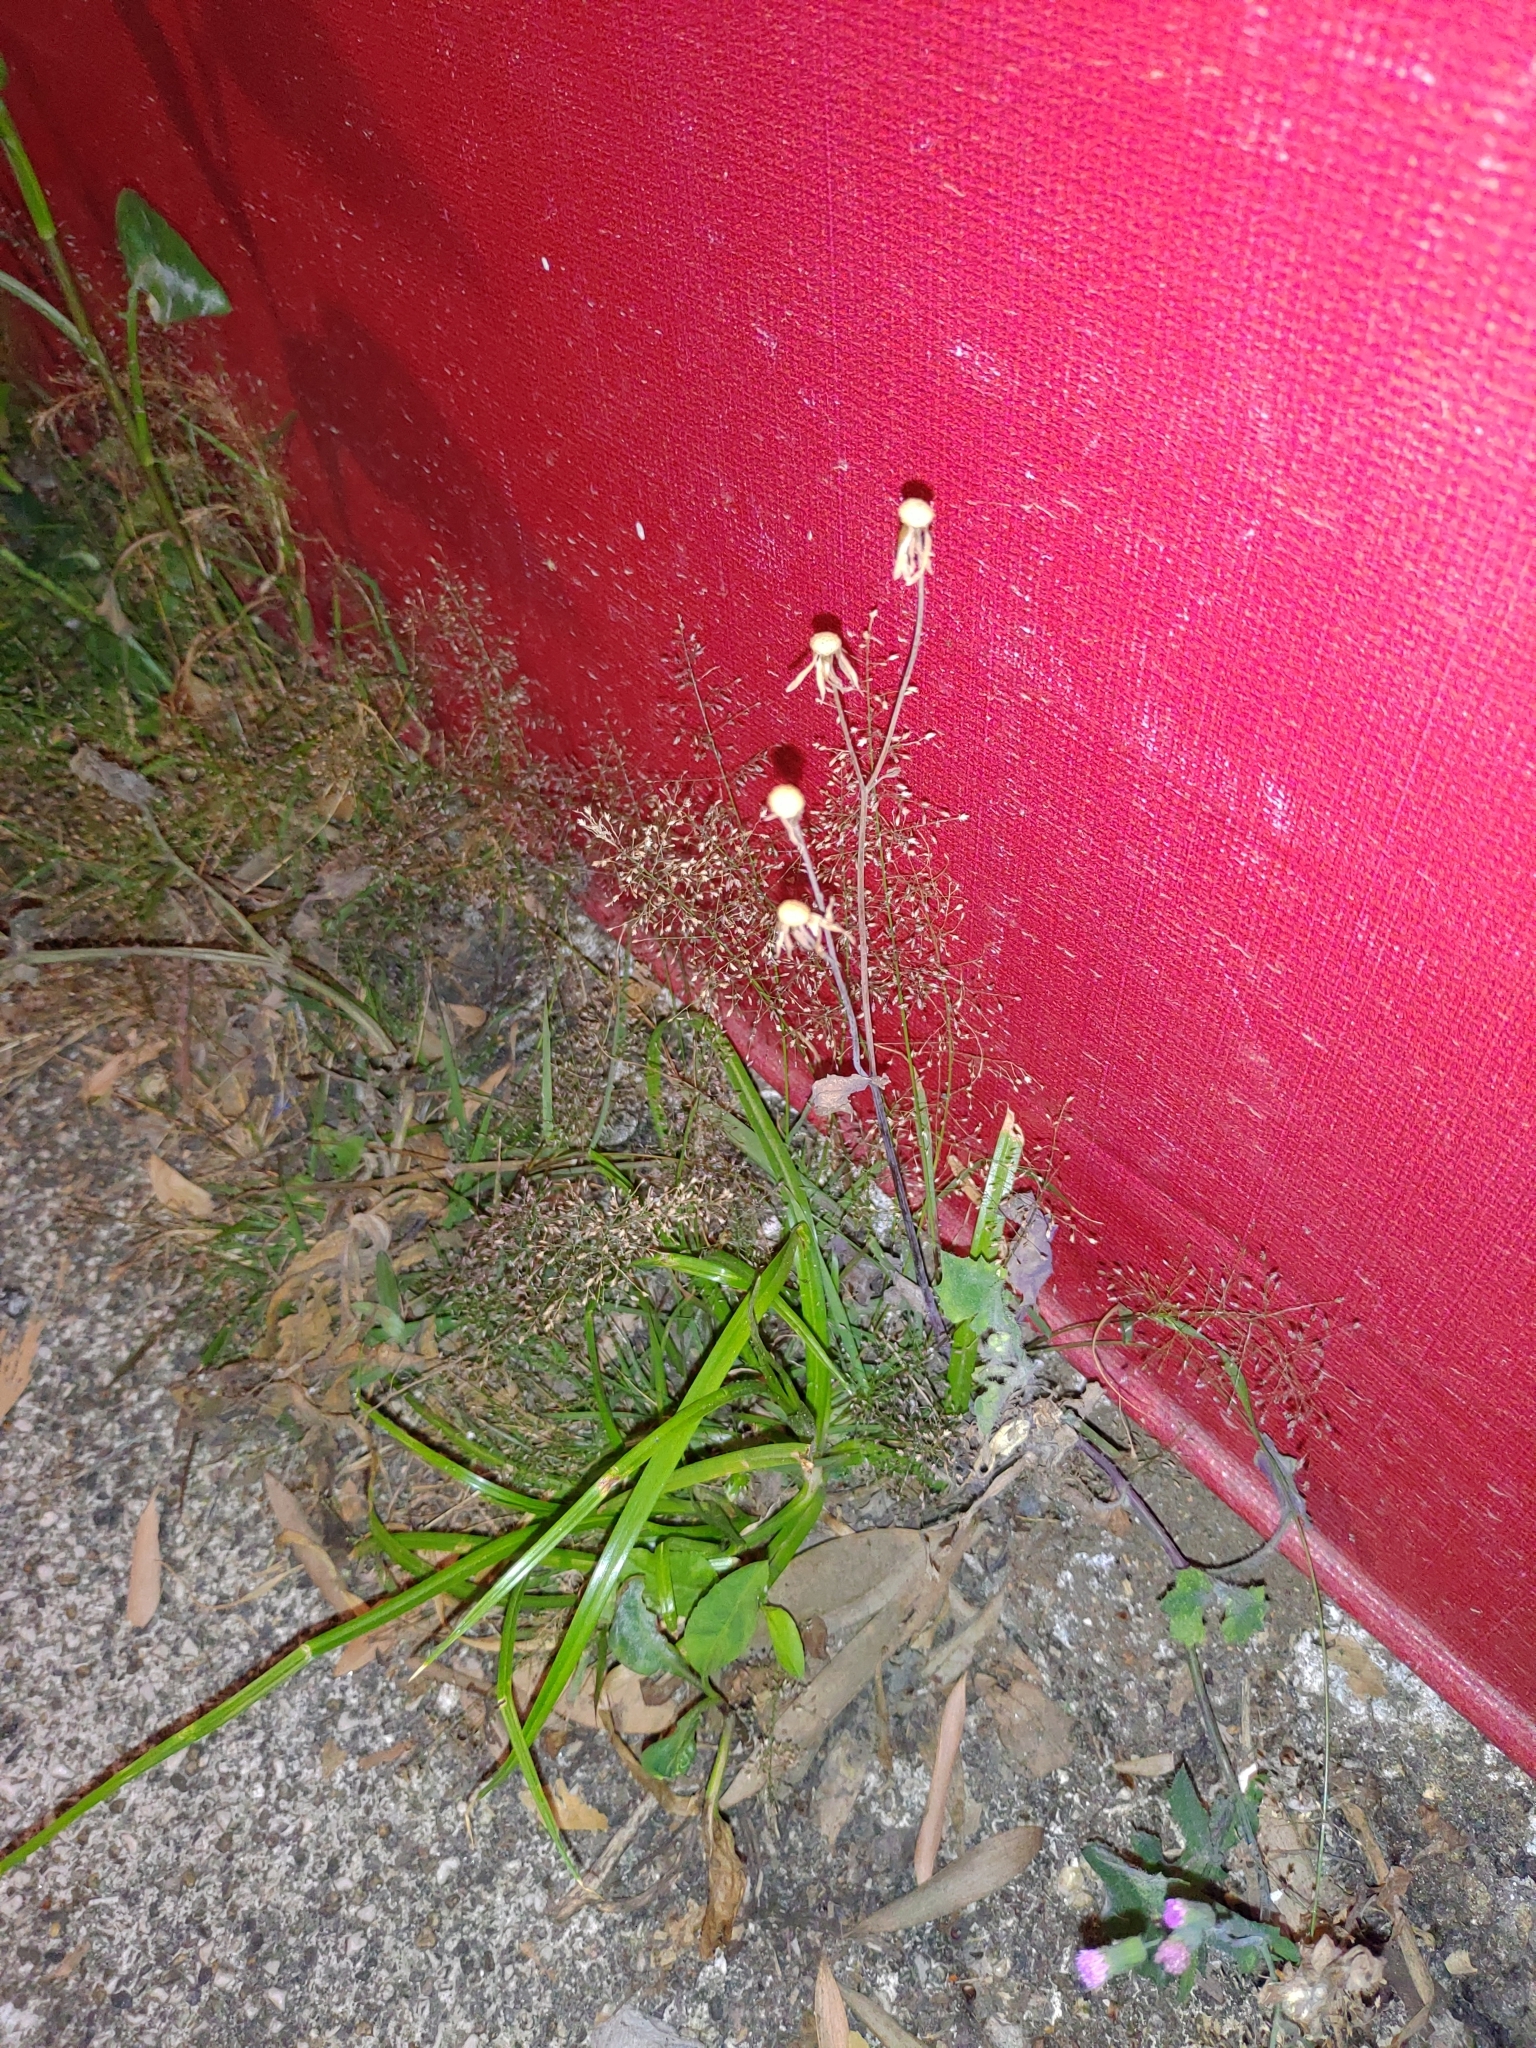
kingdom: Plantae
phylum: Tracheophyta
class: Magnoliopsida
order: Asterales
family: Asteraceae
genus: Emilia
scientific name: Emilia javanica
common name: Tassel-flower
